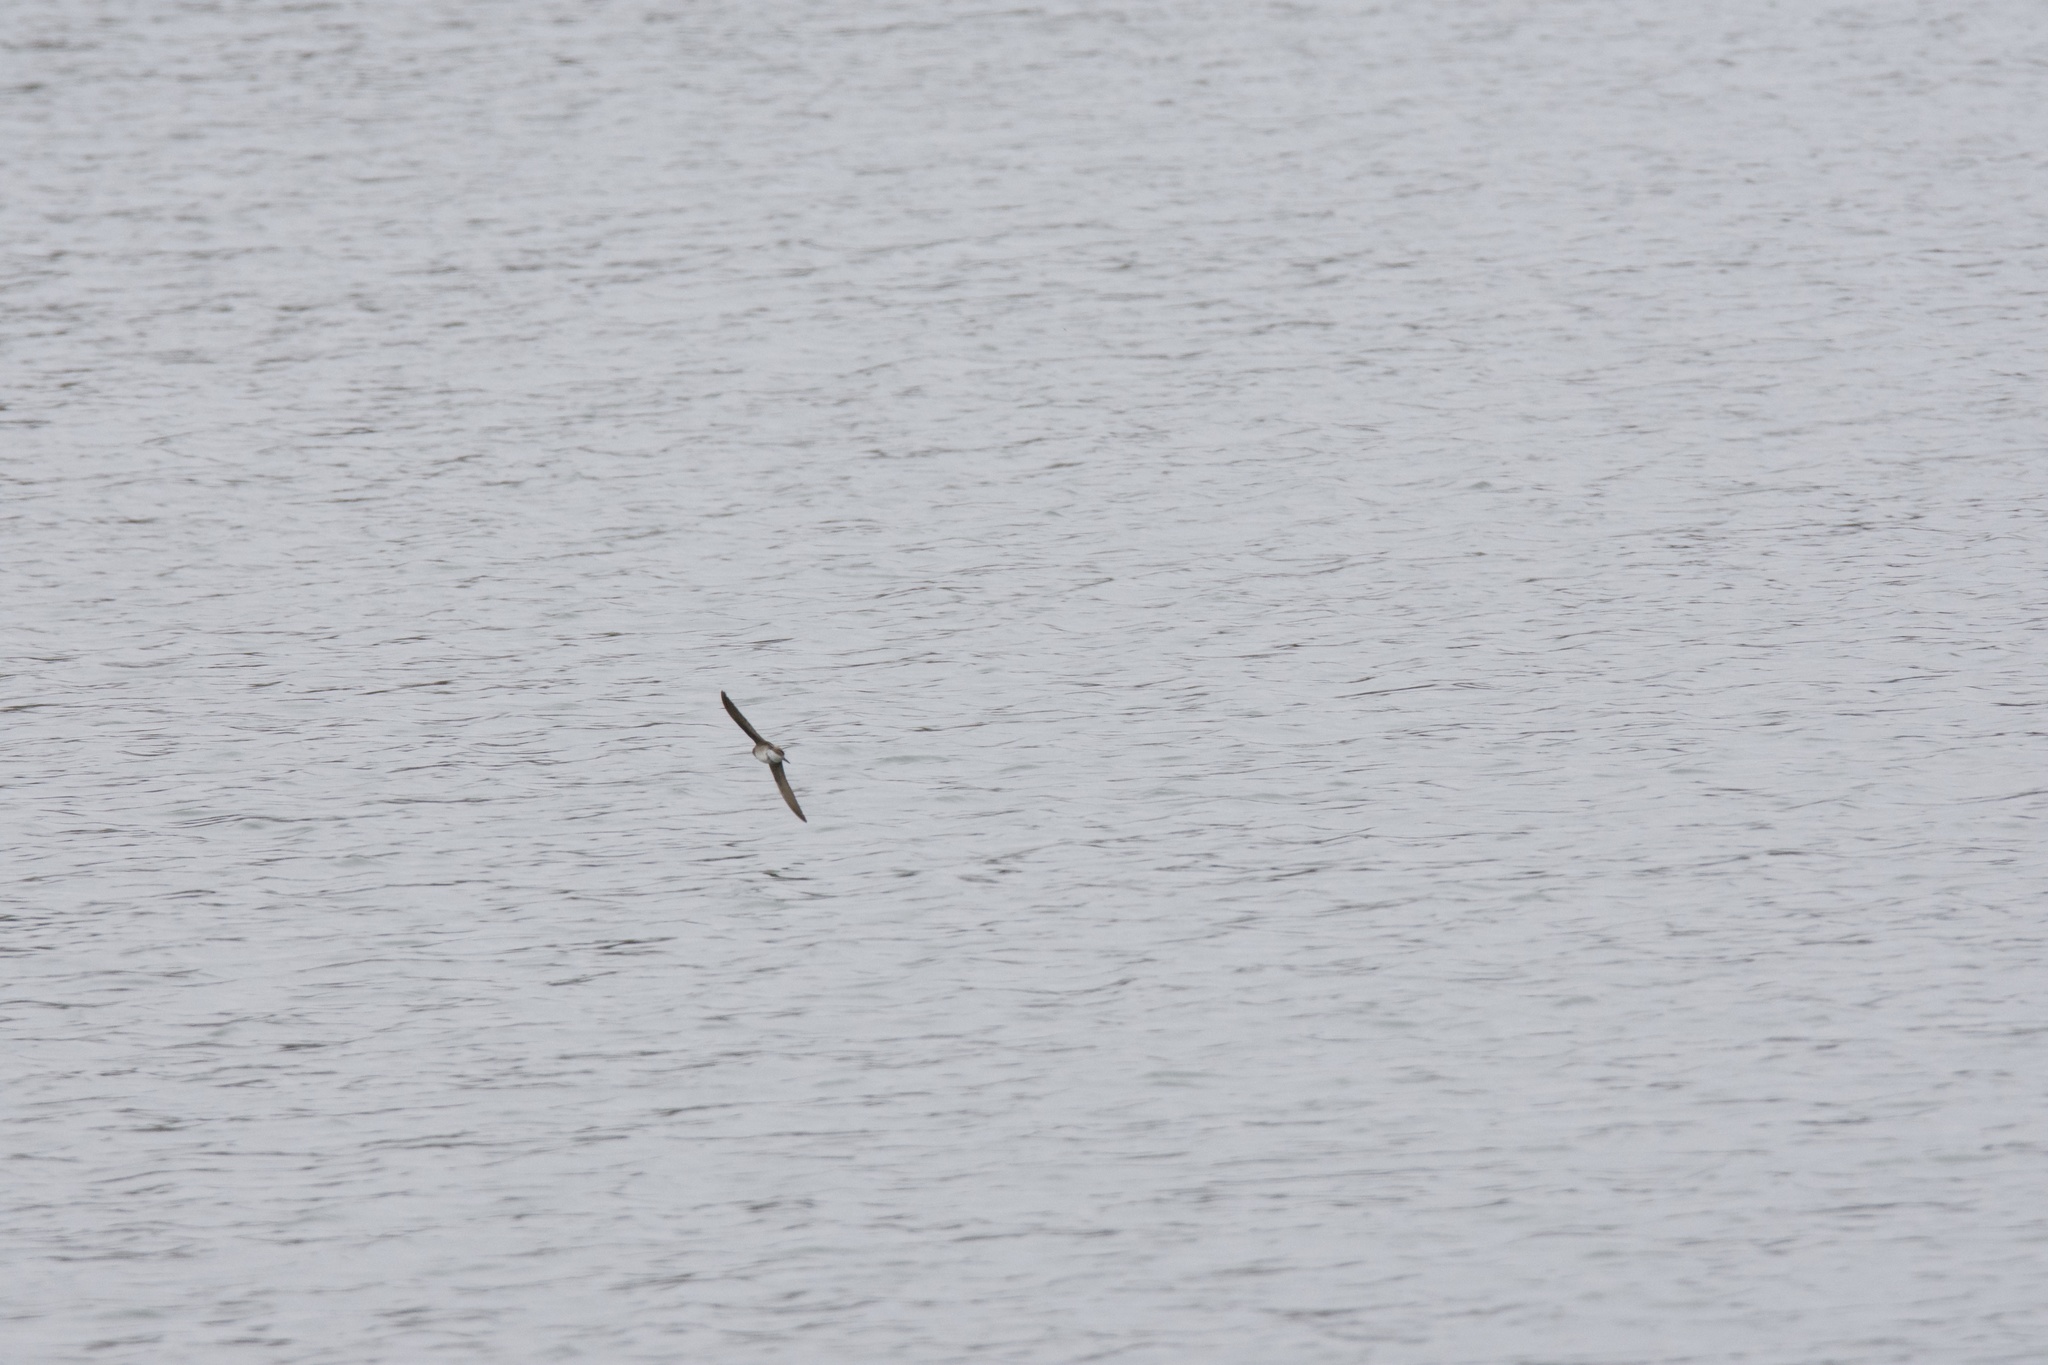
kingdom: Animalia
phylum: Chordata
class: Aves
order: Passeriformes
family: Hirundinidae
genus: Stelgidopteryx
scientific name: Stelgidopteryx serripennis
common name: Northern rough-winged swallow
